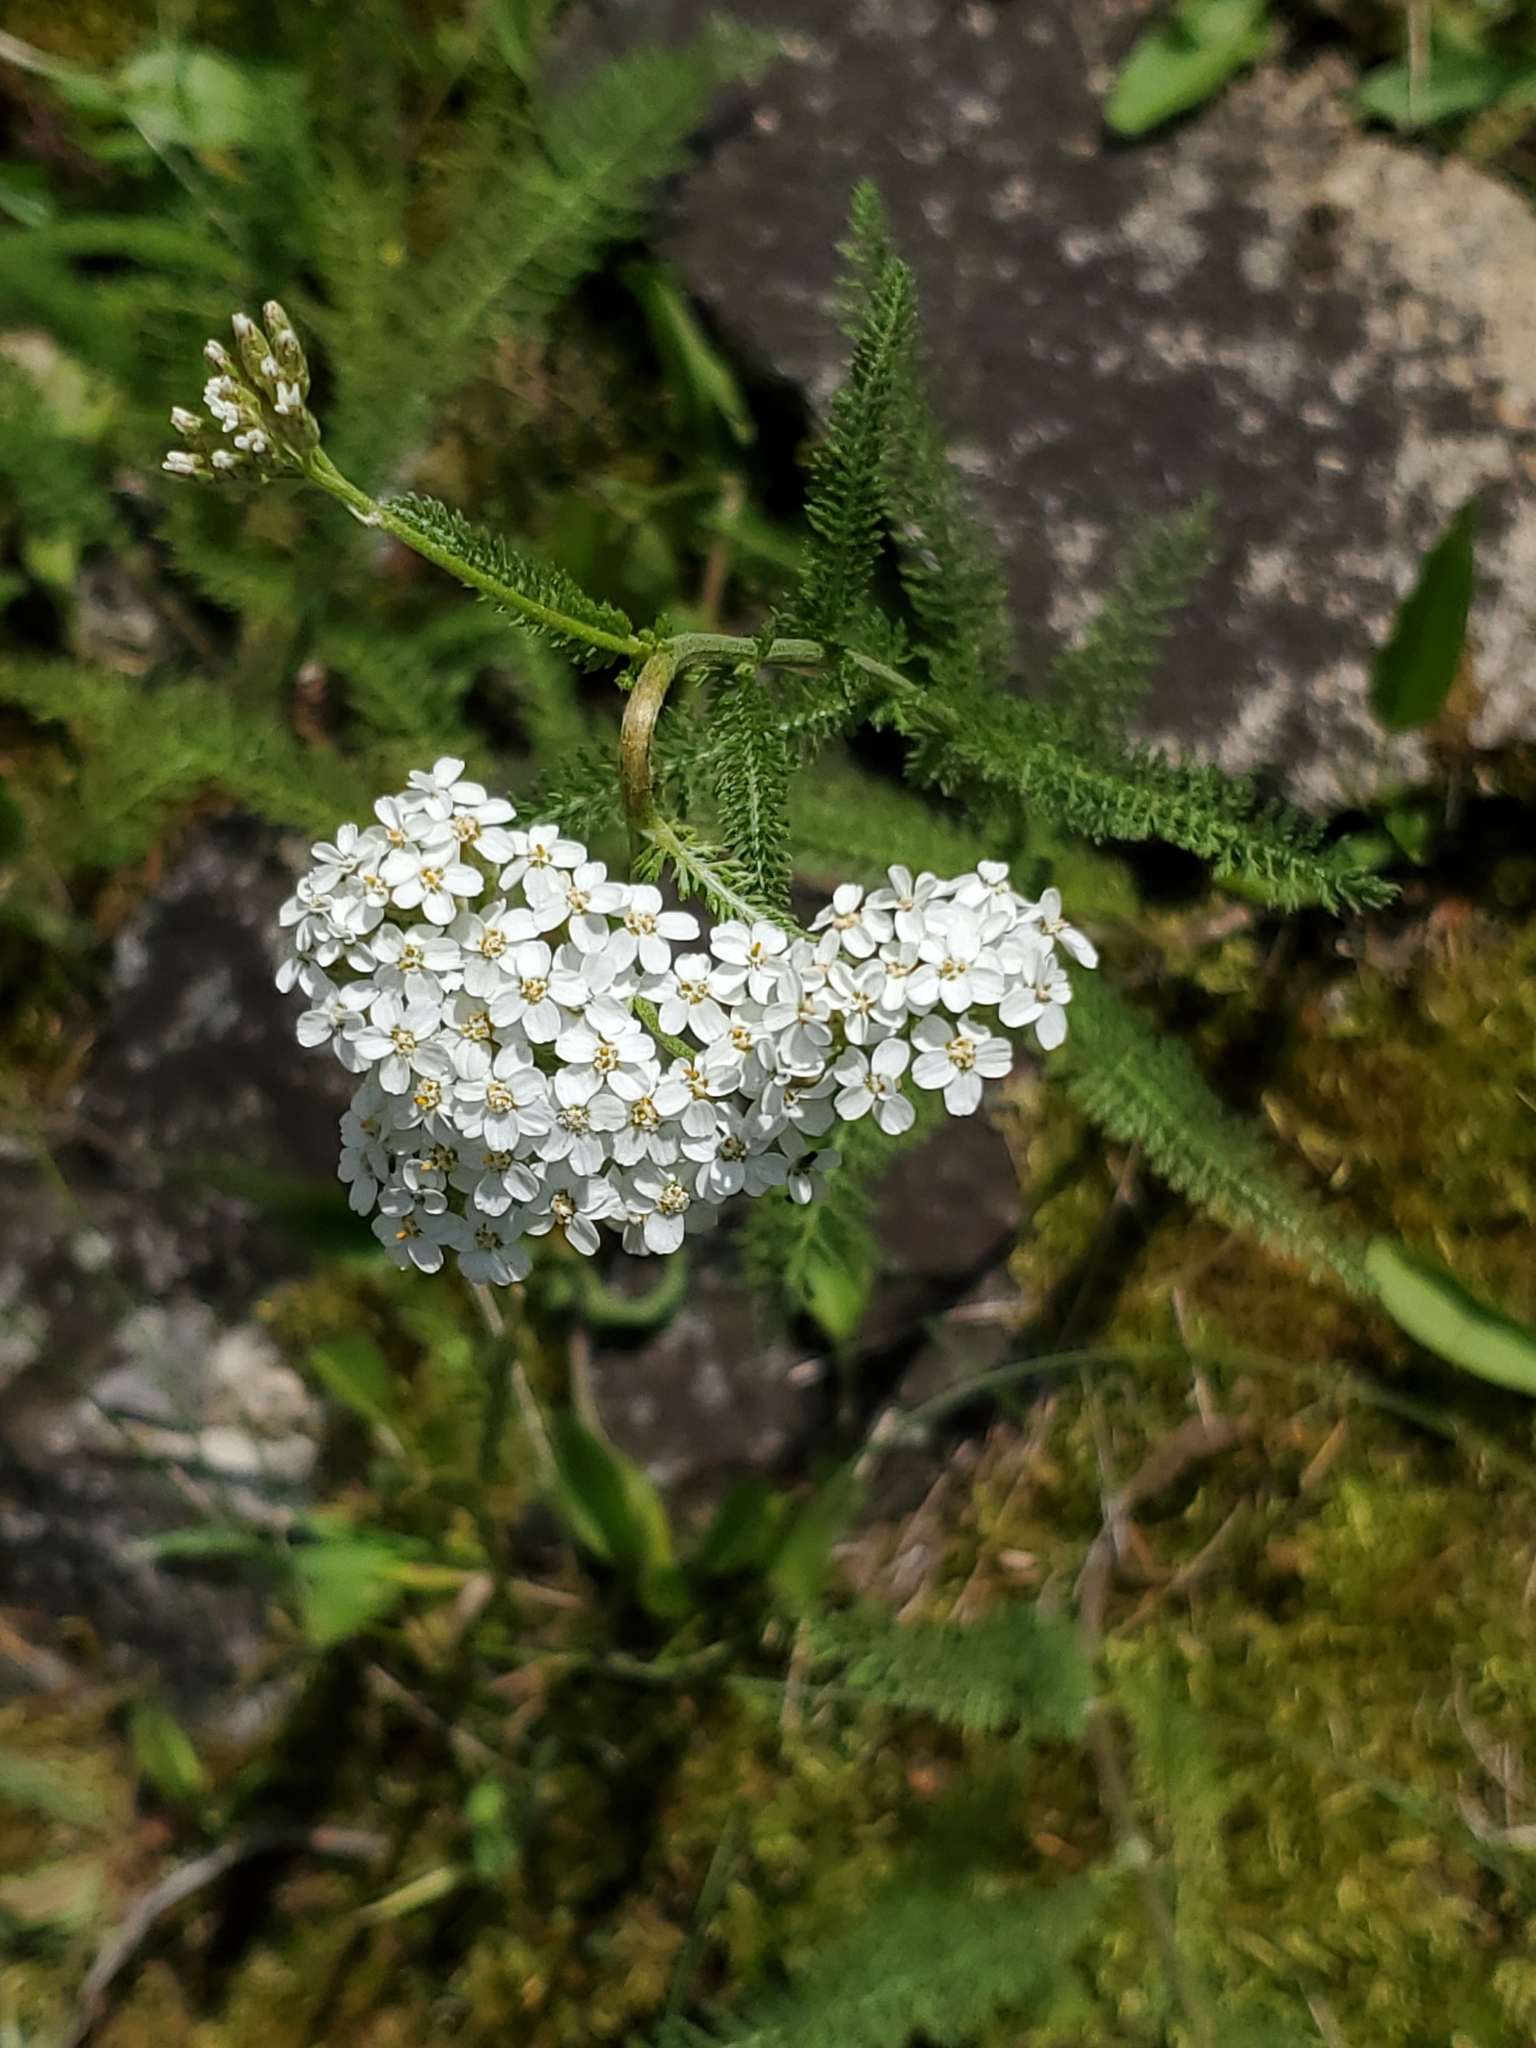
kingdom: Plantae
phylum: Tracheophyta
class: Magnoliopsida
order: Asterales
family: Asteraceae
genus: Achillea
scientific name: Achillea millefolium
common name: Yarrow
